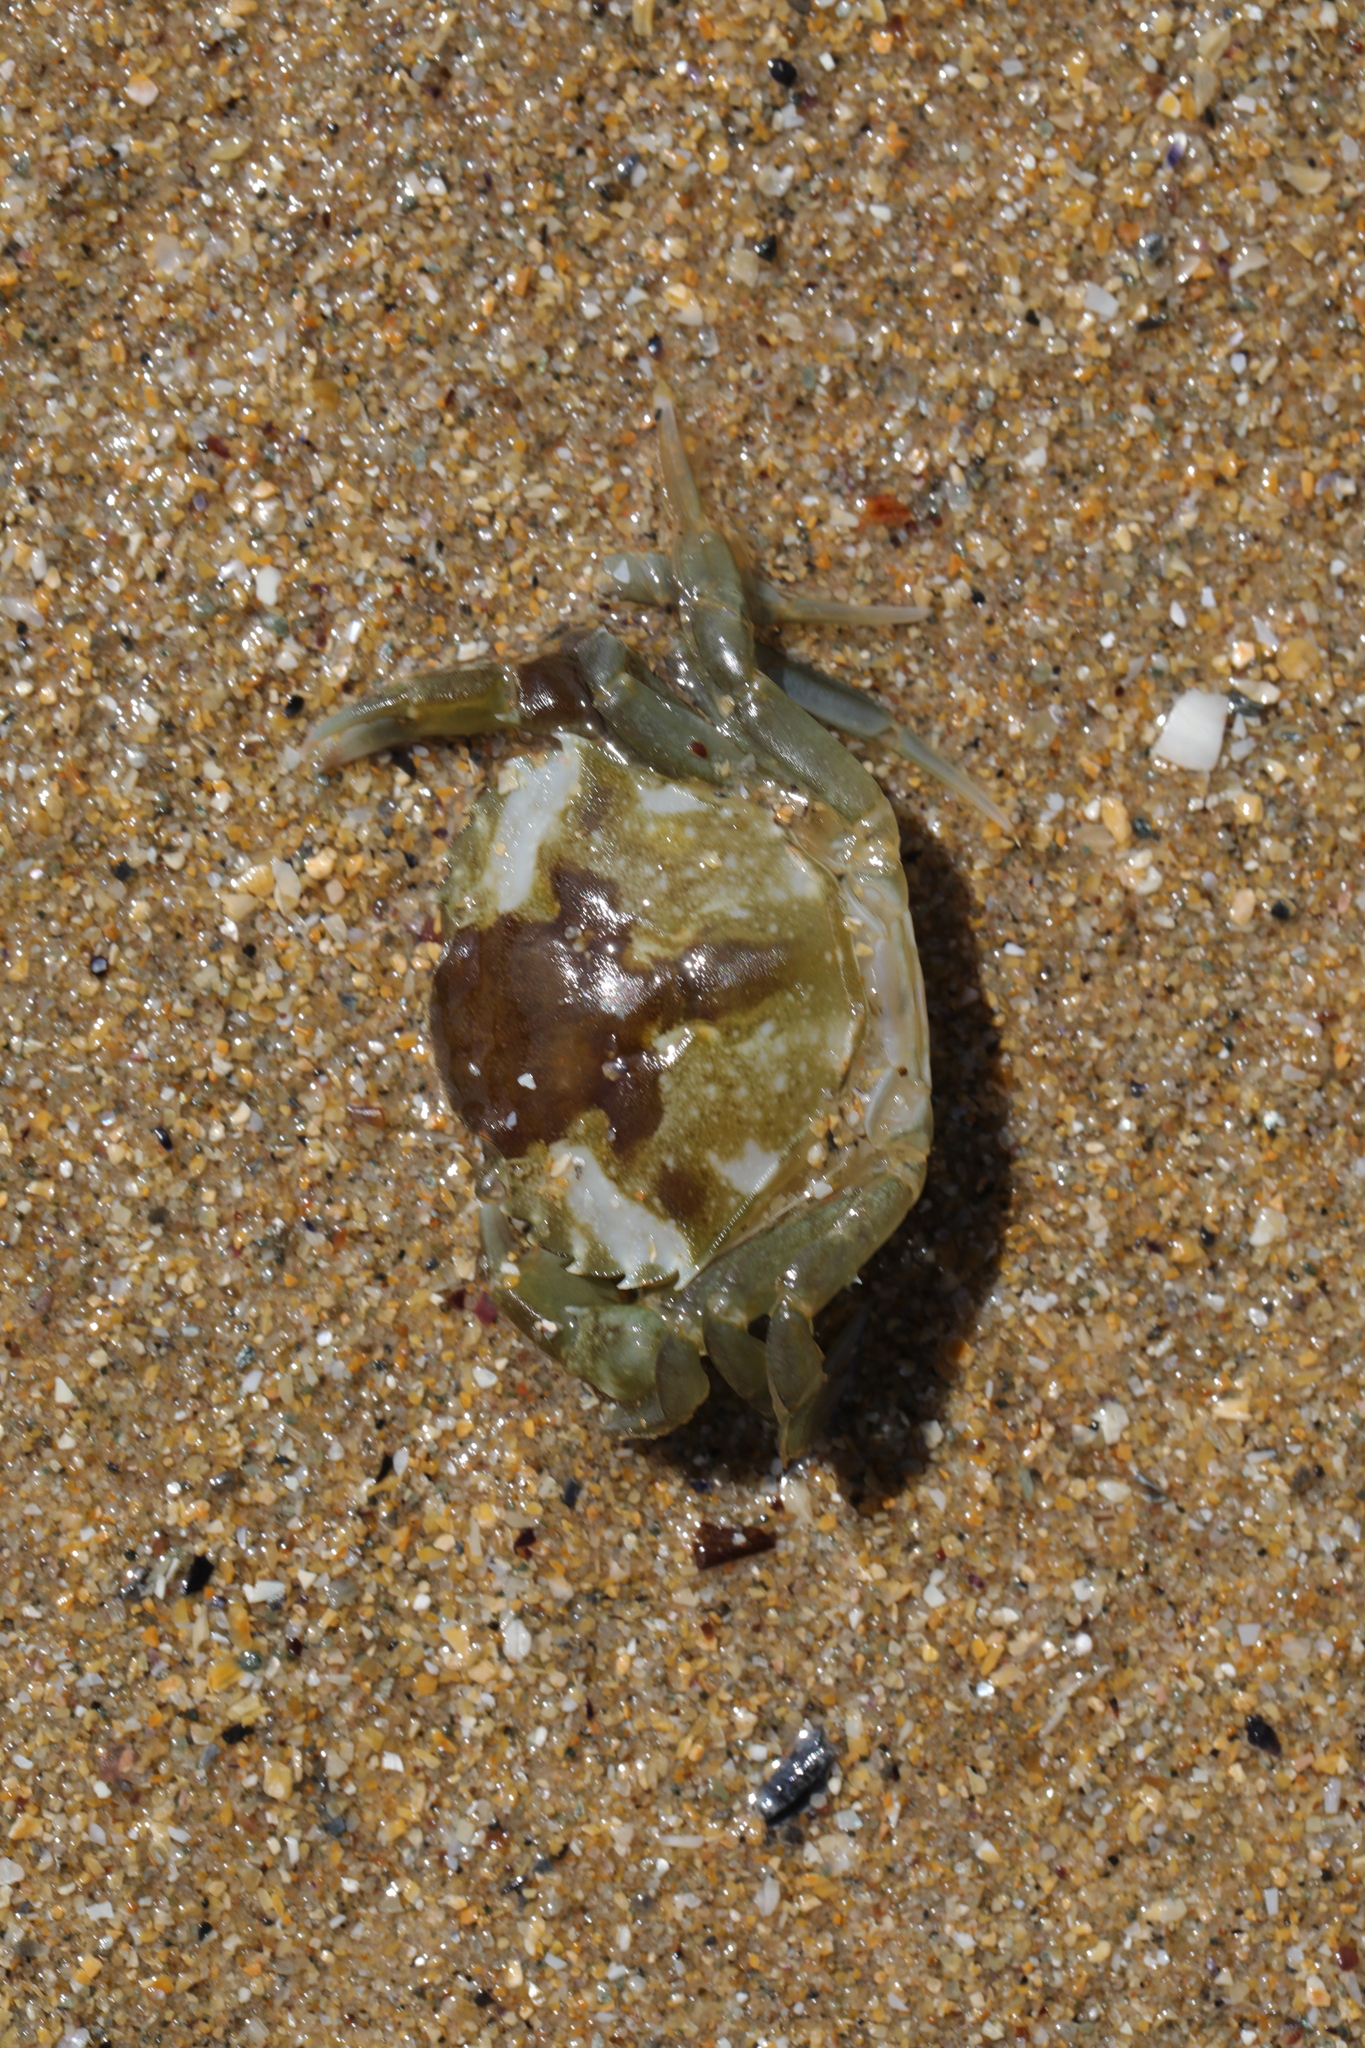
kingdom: Animalia
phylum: Arthropoda
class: Malacostraca
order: Decapoda
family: Carcinidae
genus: Carcinus
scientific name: Carcinus maenas
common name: European green crab
